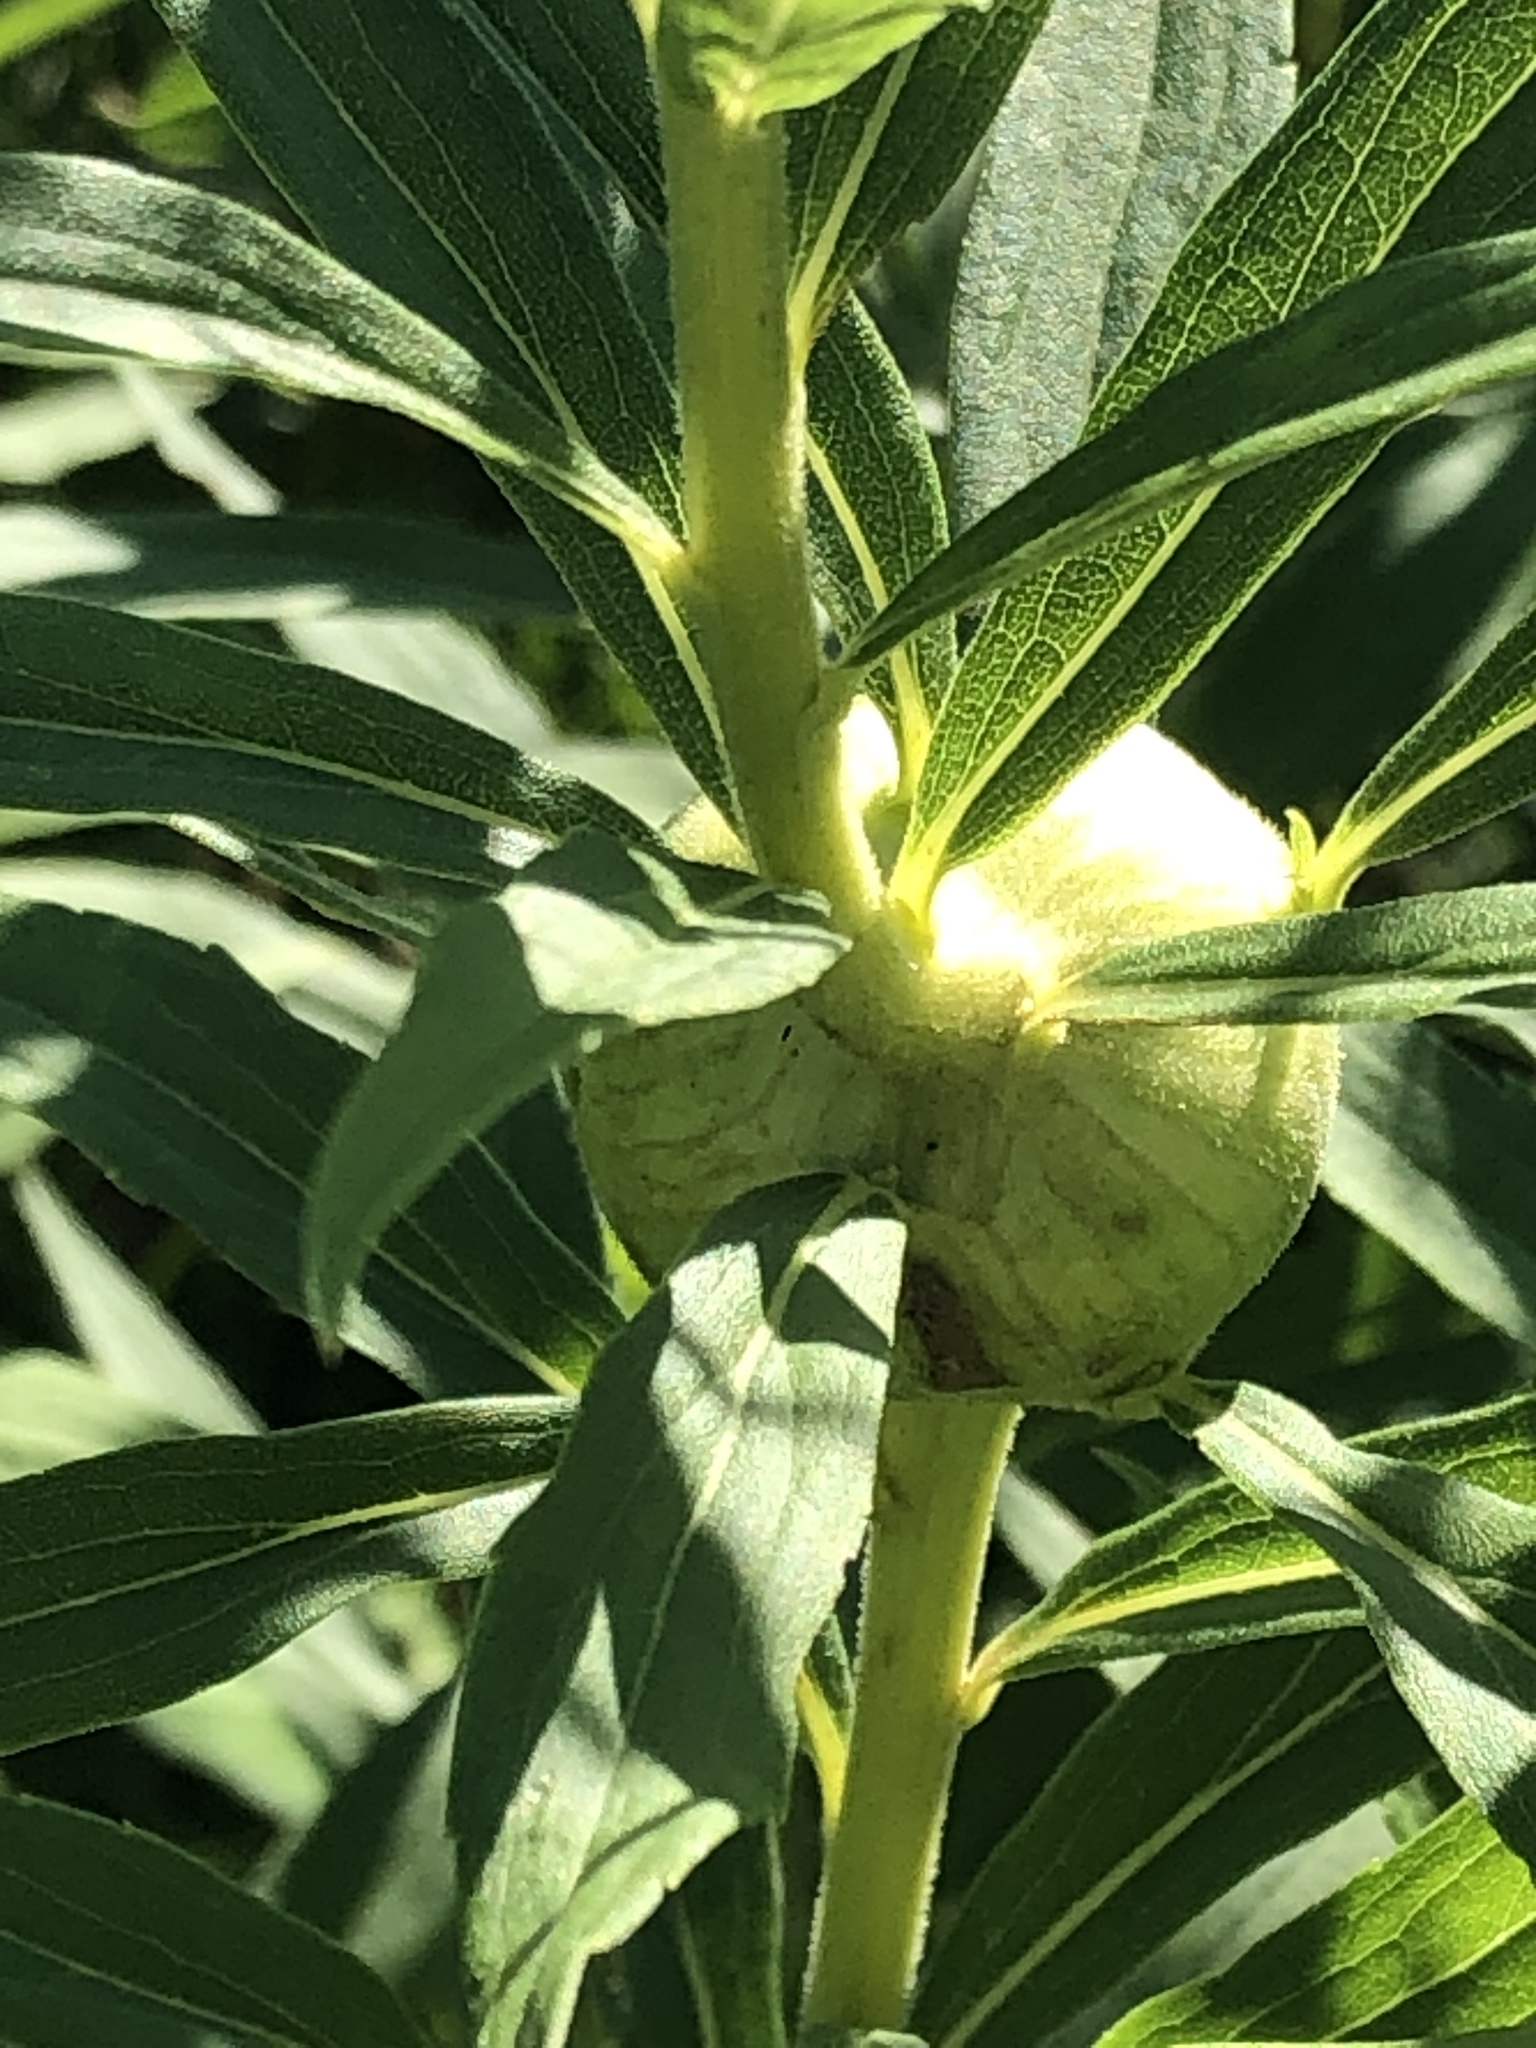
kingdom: Animalia
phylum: Arthropoda
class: Insecta
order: Diptera
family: Tephritidae
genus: Eurosta
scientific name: Eurosta solidaginis
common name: Goldenrod gall fly
